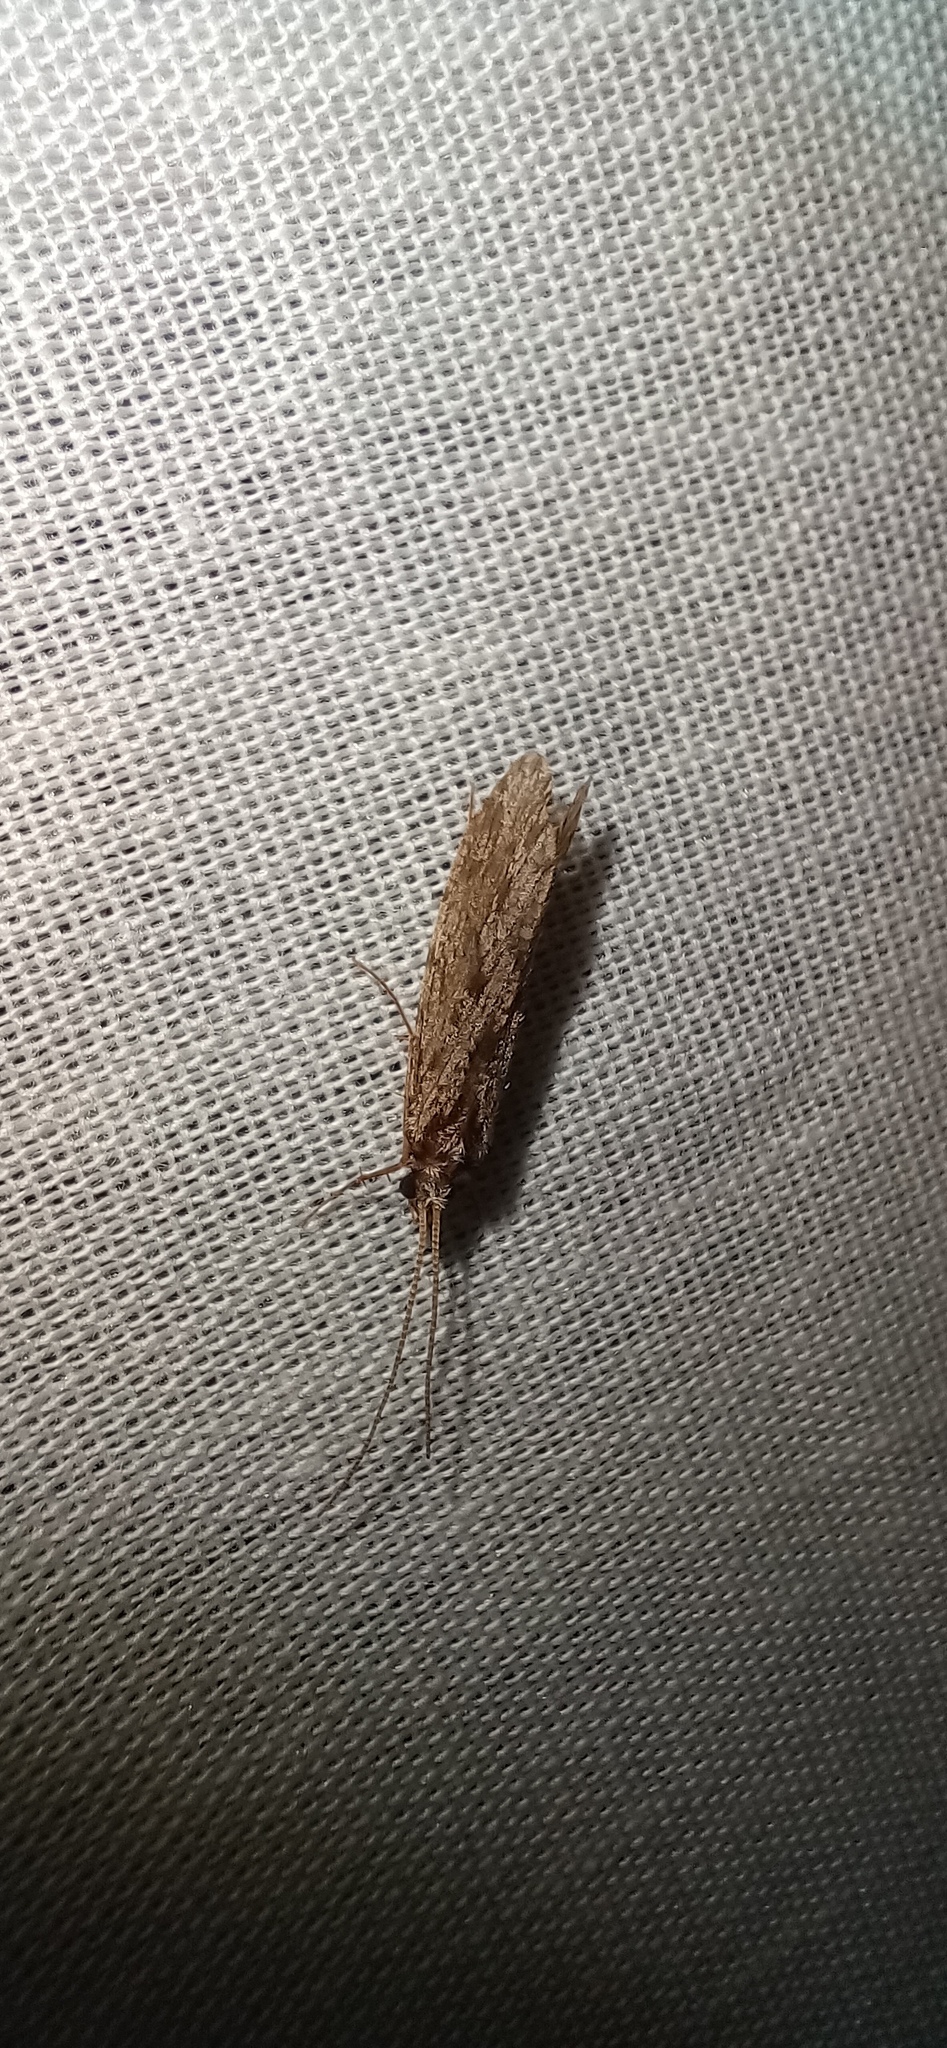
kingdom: Animalia
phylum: Arthropoda
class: Insecta
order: Trichoptera
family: Polycentropodidae
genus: Plectrocnemia
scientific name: Plectrocnemia conspersa
